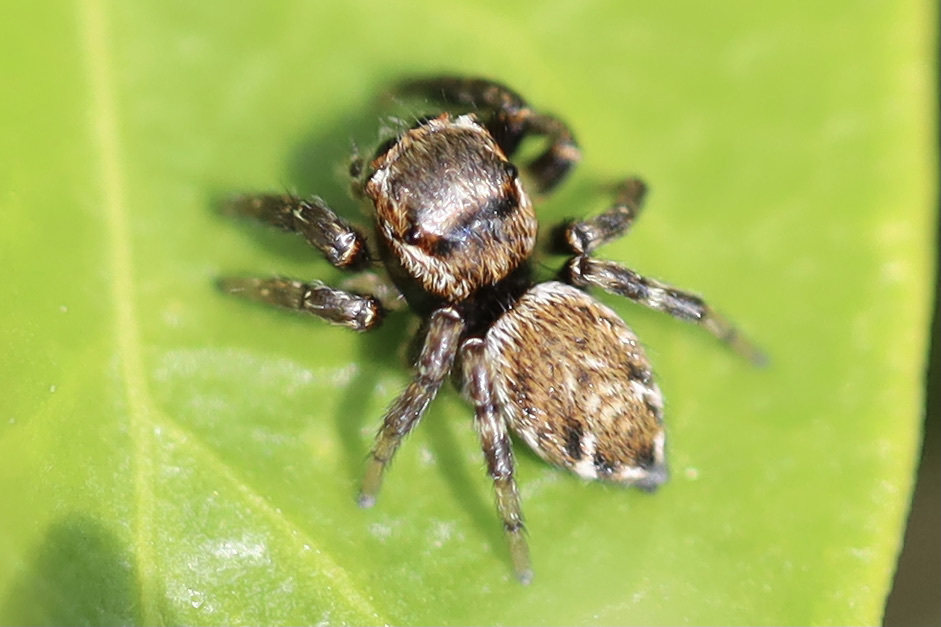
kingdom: Animalia
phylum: Arthropoda
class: Arachnida
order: Araneae
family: Salticidae
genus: Evarcha
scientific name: Evarcha proszynskii
